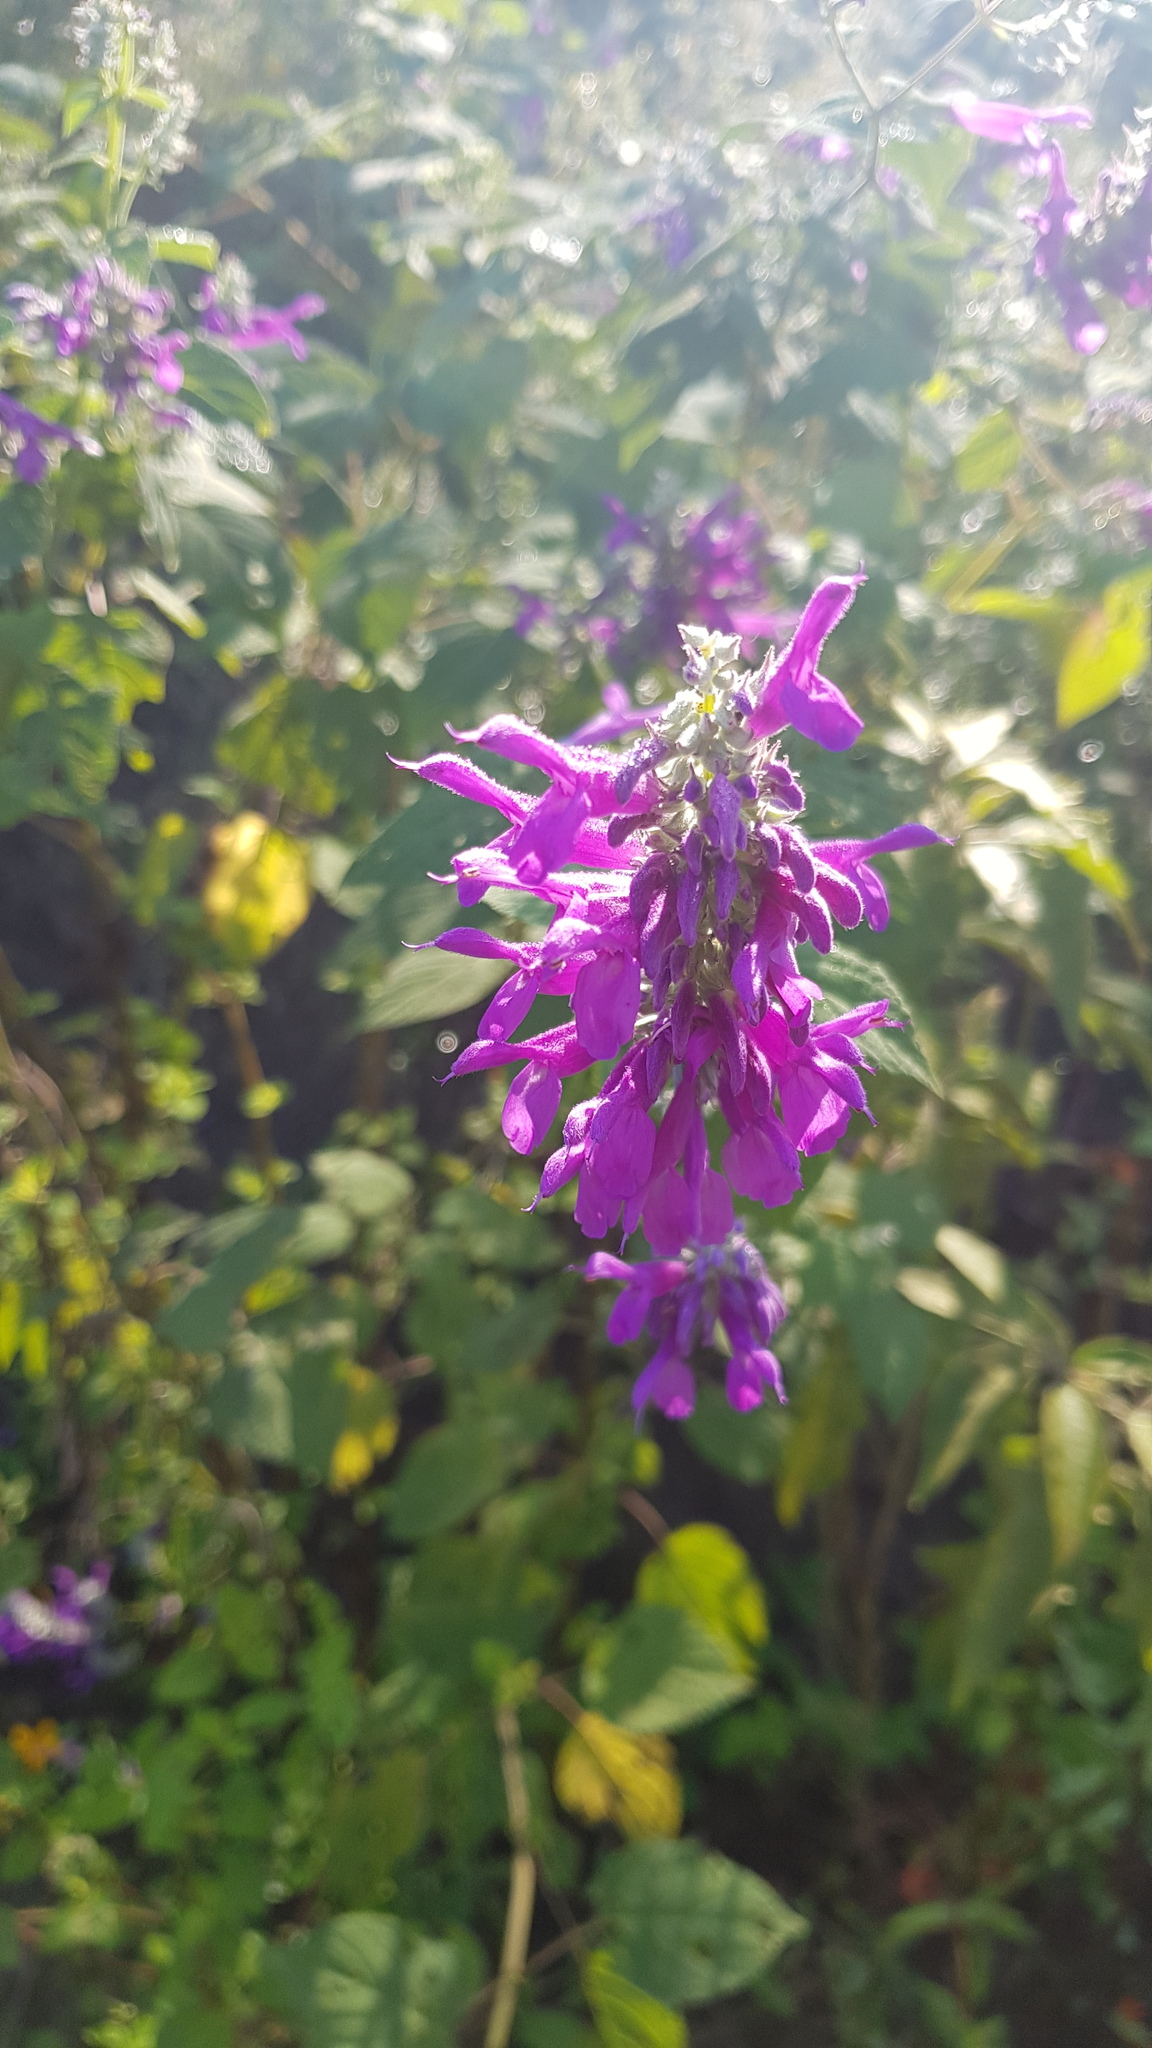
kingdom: Plantae
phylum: Tracheophyta
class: Magnoliopsida
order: Lamiales
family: Lamiaceae
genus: Salvia
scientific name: Salvia purpurea
